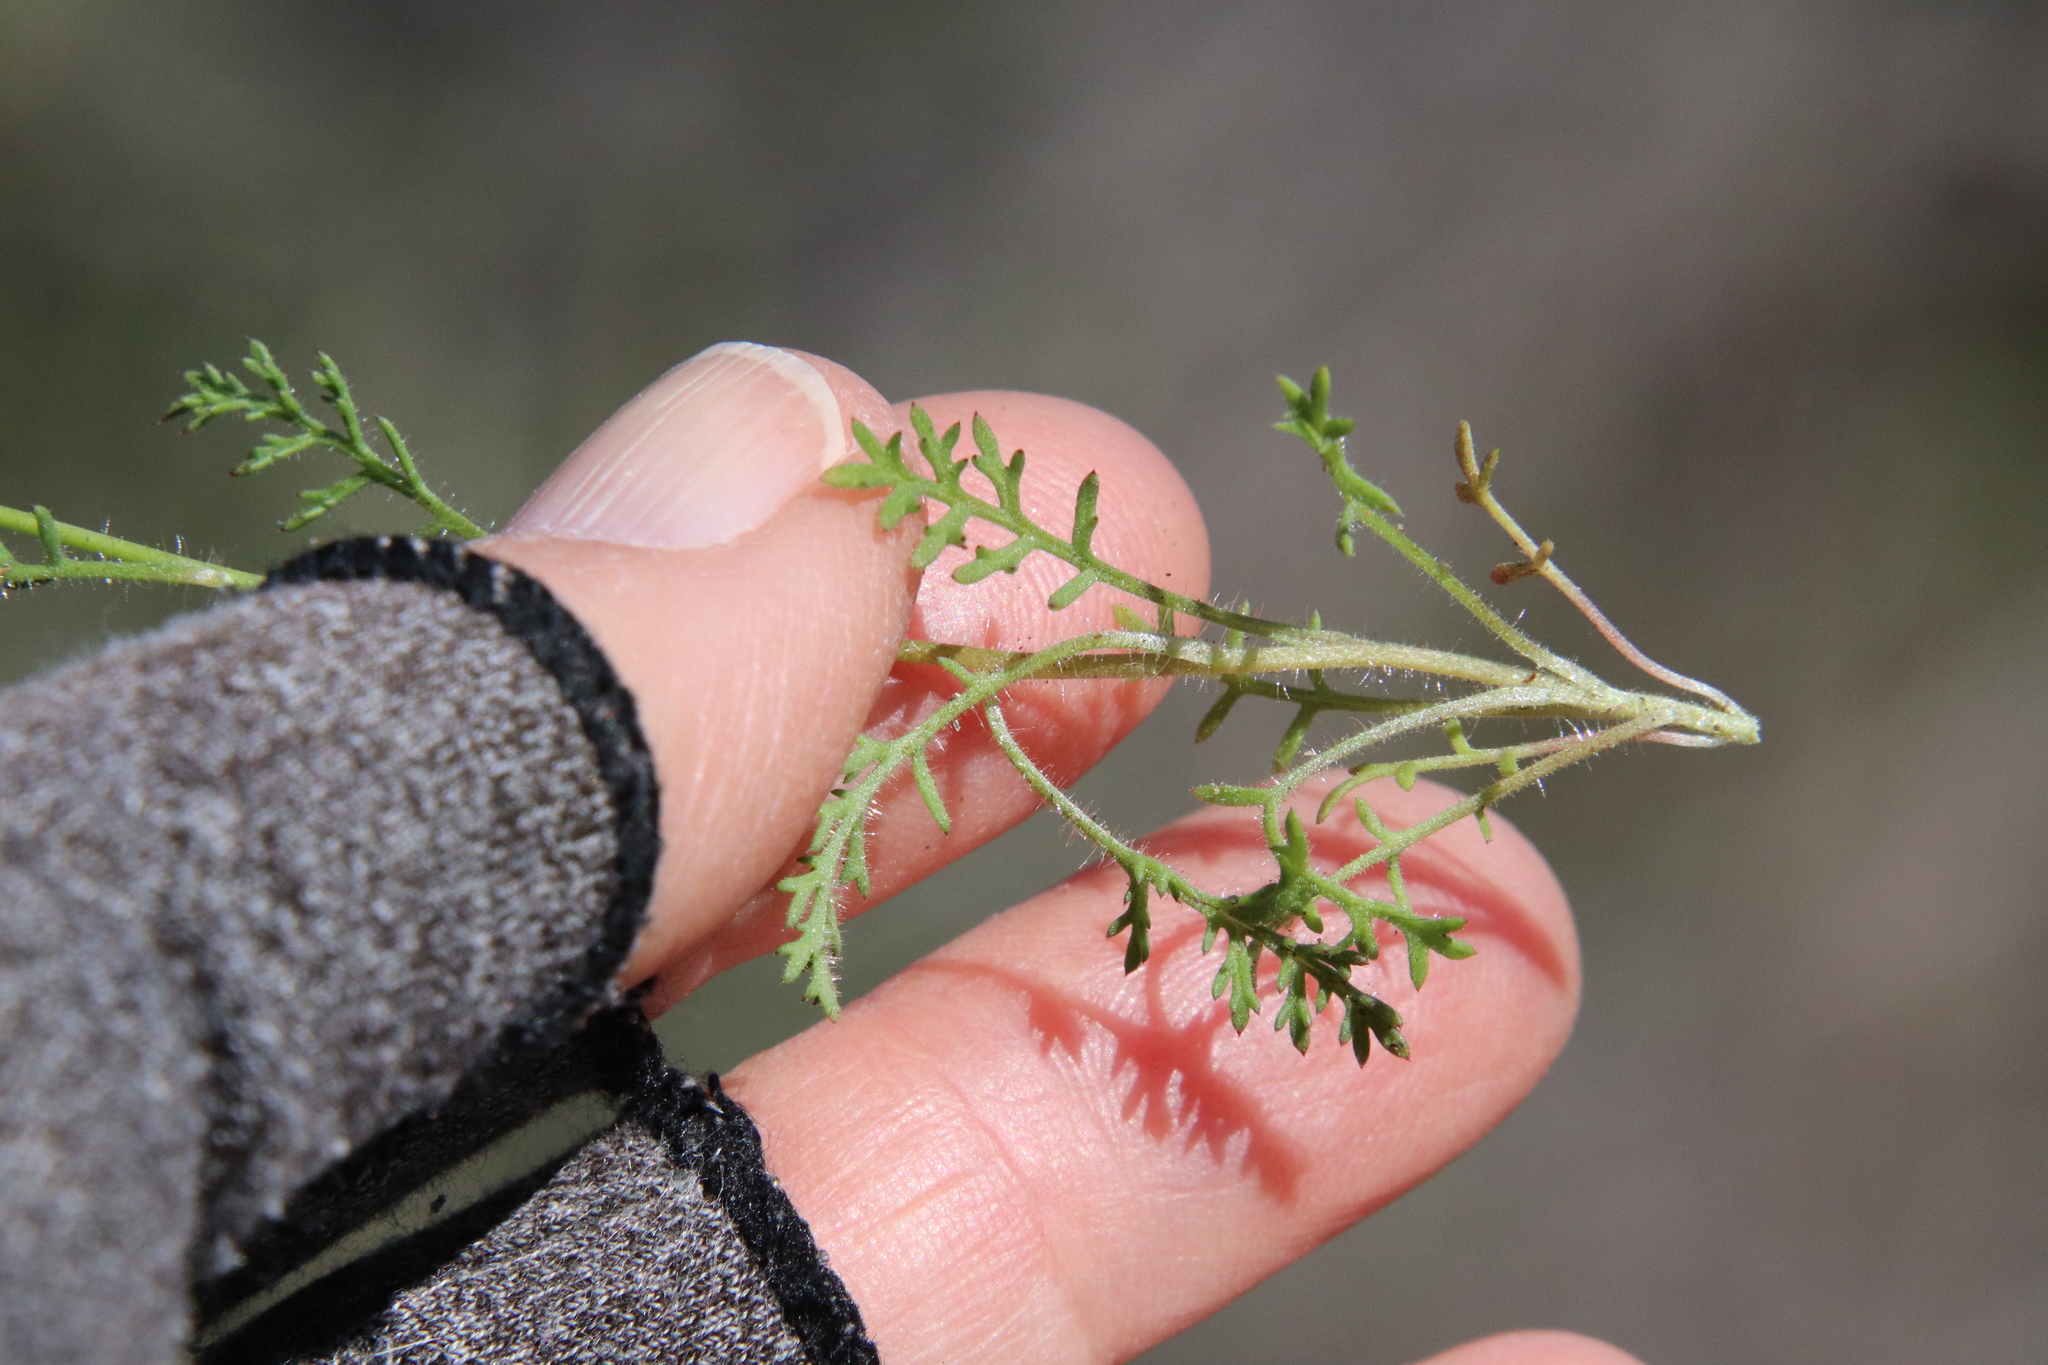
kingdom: Plantae
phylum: Tracheophyta
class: Magnoliopsida
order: Ericales
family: Polemoniaceae
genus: Saltugilia
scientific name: Saltugilia australis
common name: Southern gilia
